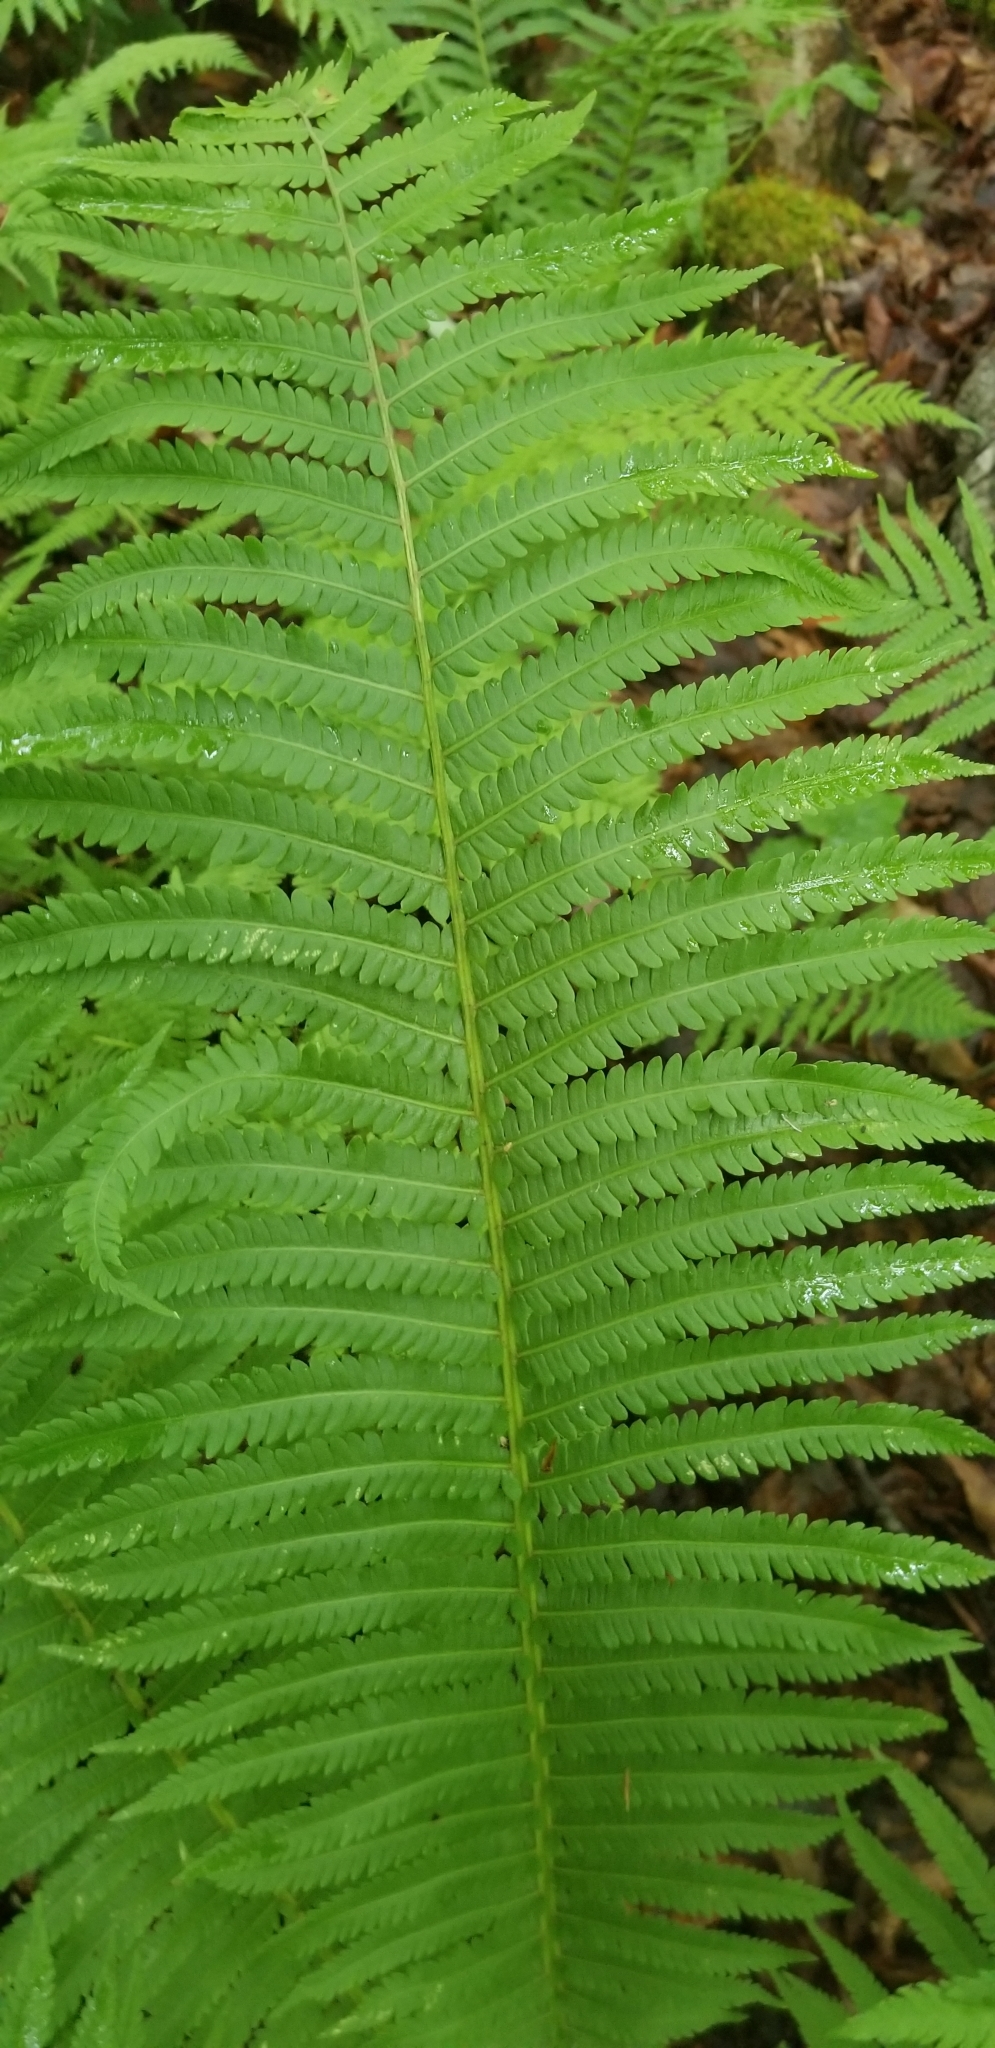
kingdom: Plantae
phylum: Tracheophyta
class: Polypodiopsida
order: Polypodiales
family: Onocleaceae
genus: Matteuccia
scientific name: Matteuccia struthiopteris
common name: Ostrich fern
